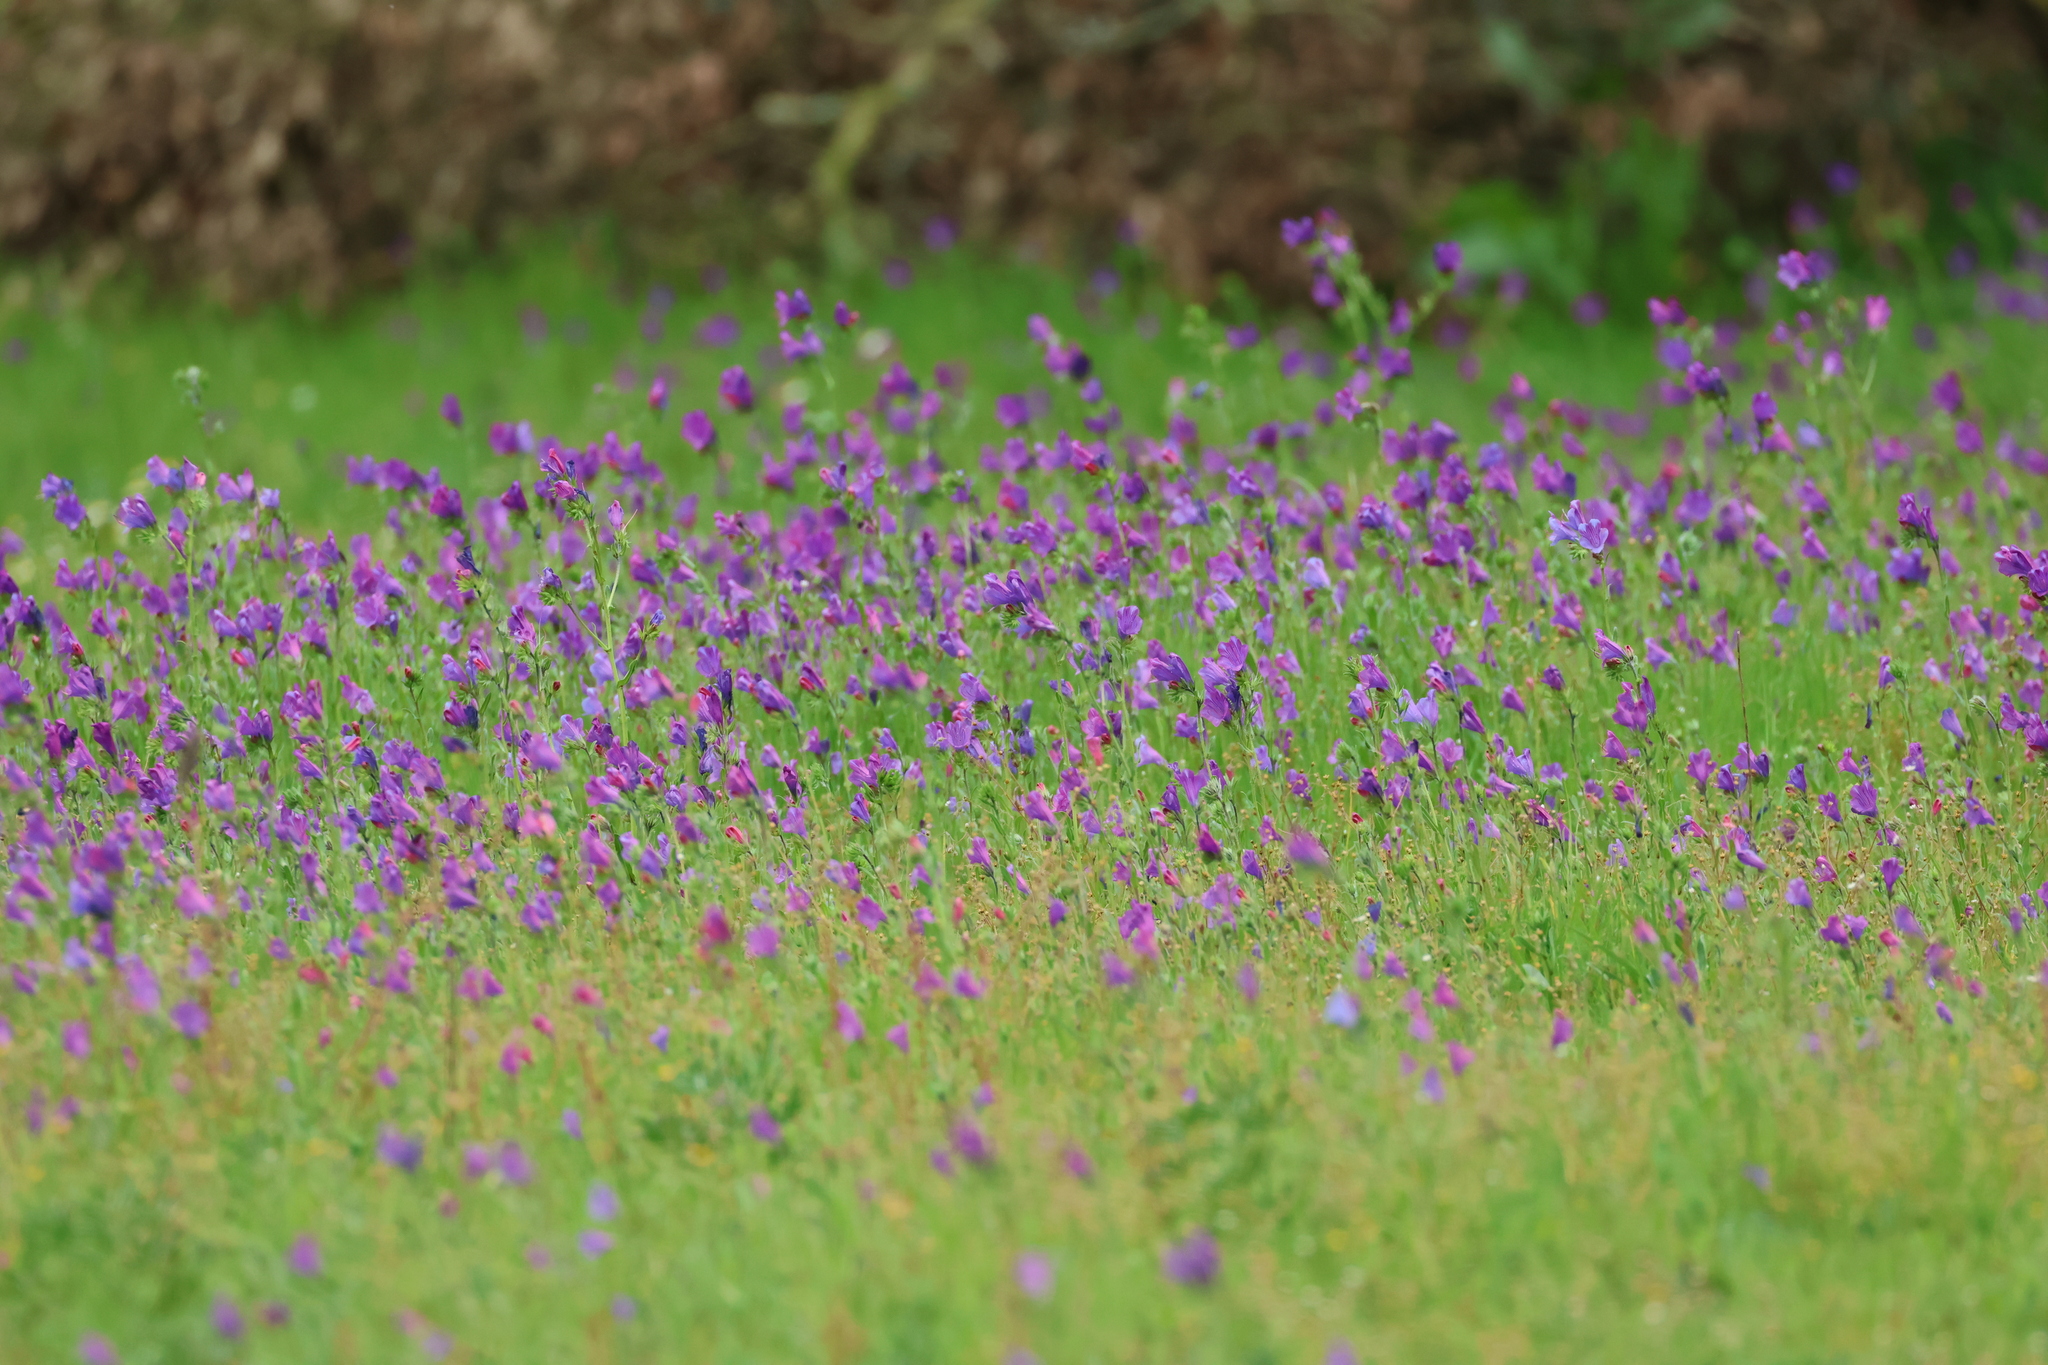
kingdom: Plantae
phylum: Tracheophyta
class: Magnoliopsida
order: Boraginales
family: Boraginaceae
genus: Echium
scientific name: Echium plantagineum
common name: Purple viper's-bugloss
